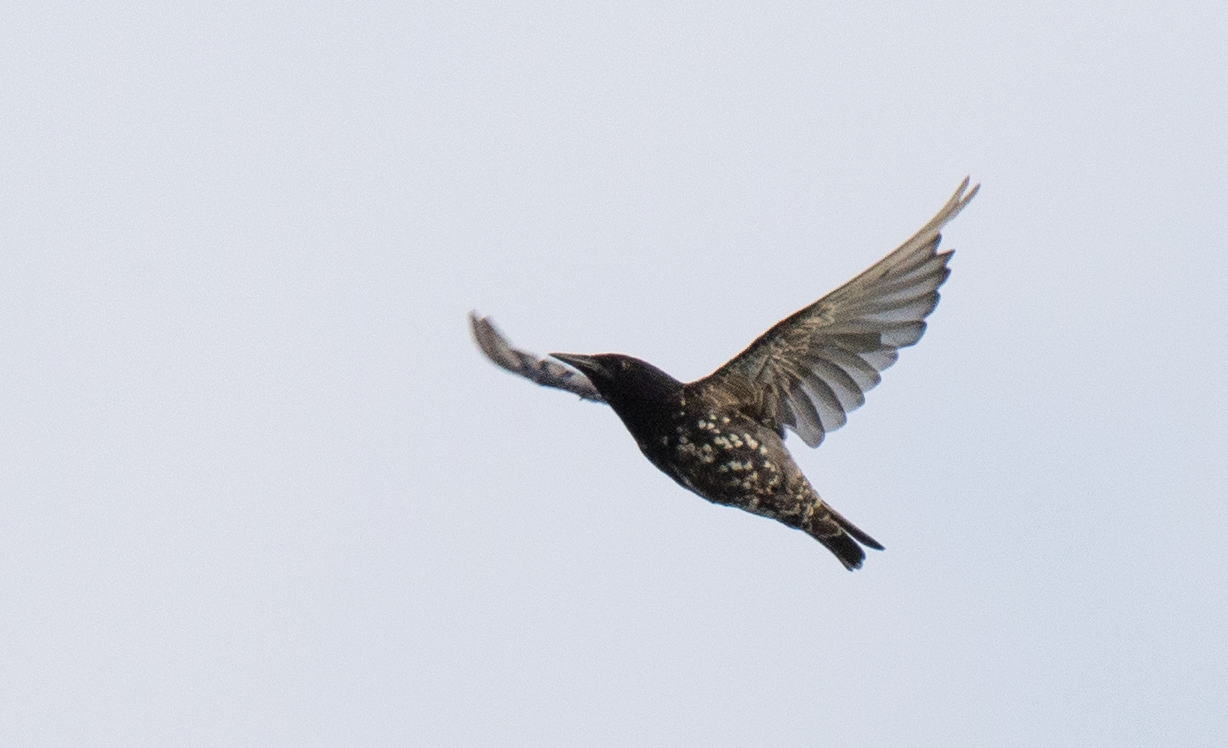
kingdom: Animalia
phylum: Chordata
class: Aves
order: Passeriformes
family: Sturnidae
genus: Sturnus
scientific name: Sturnus vulgaris
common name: Common starling
